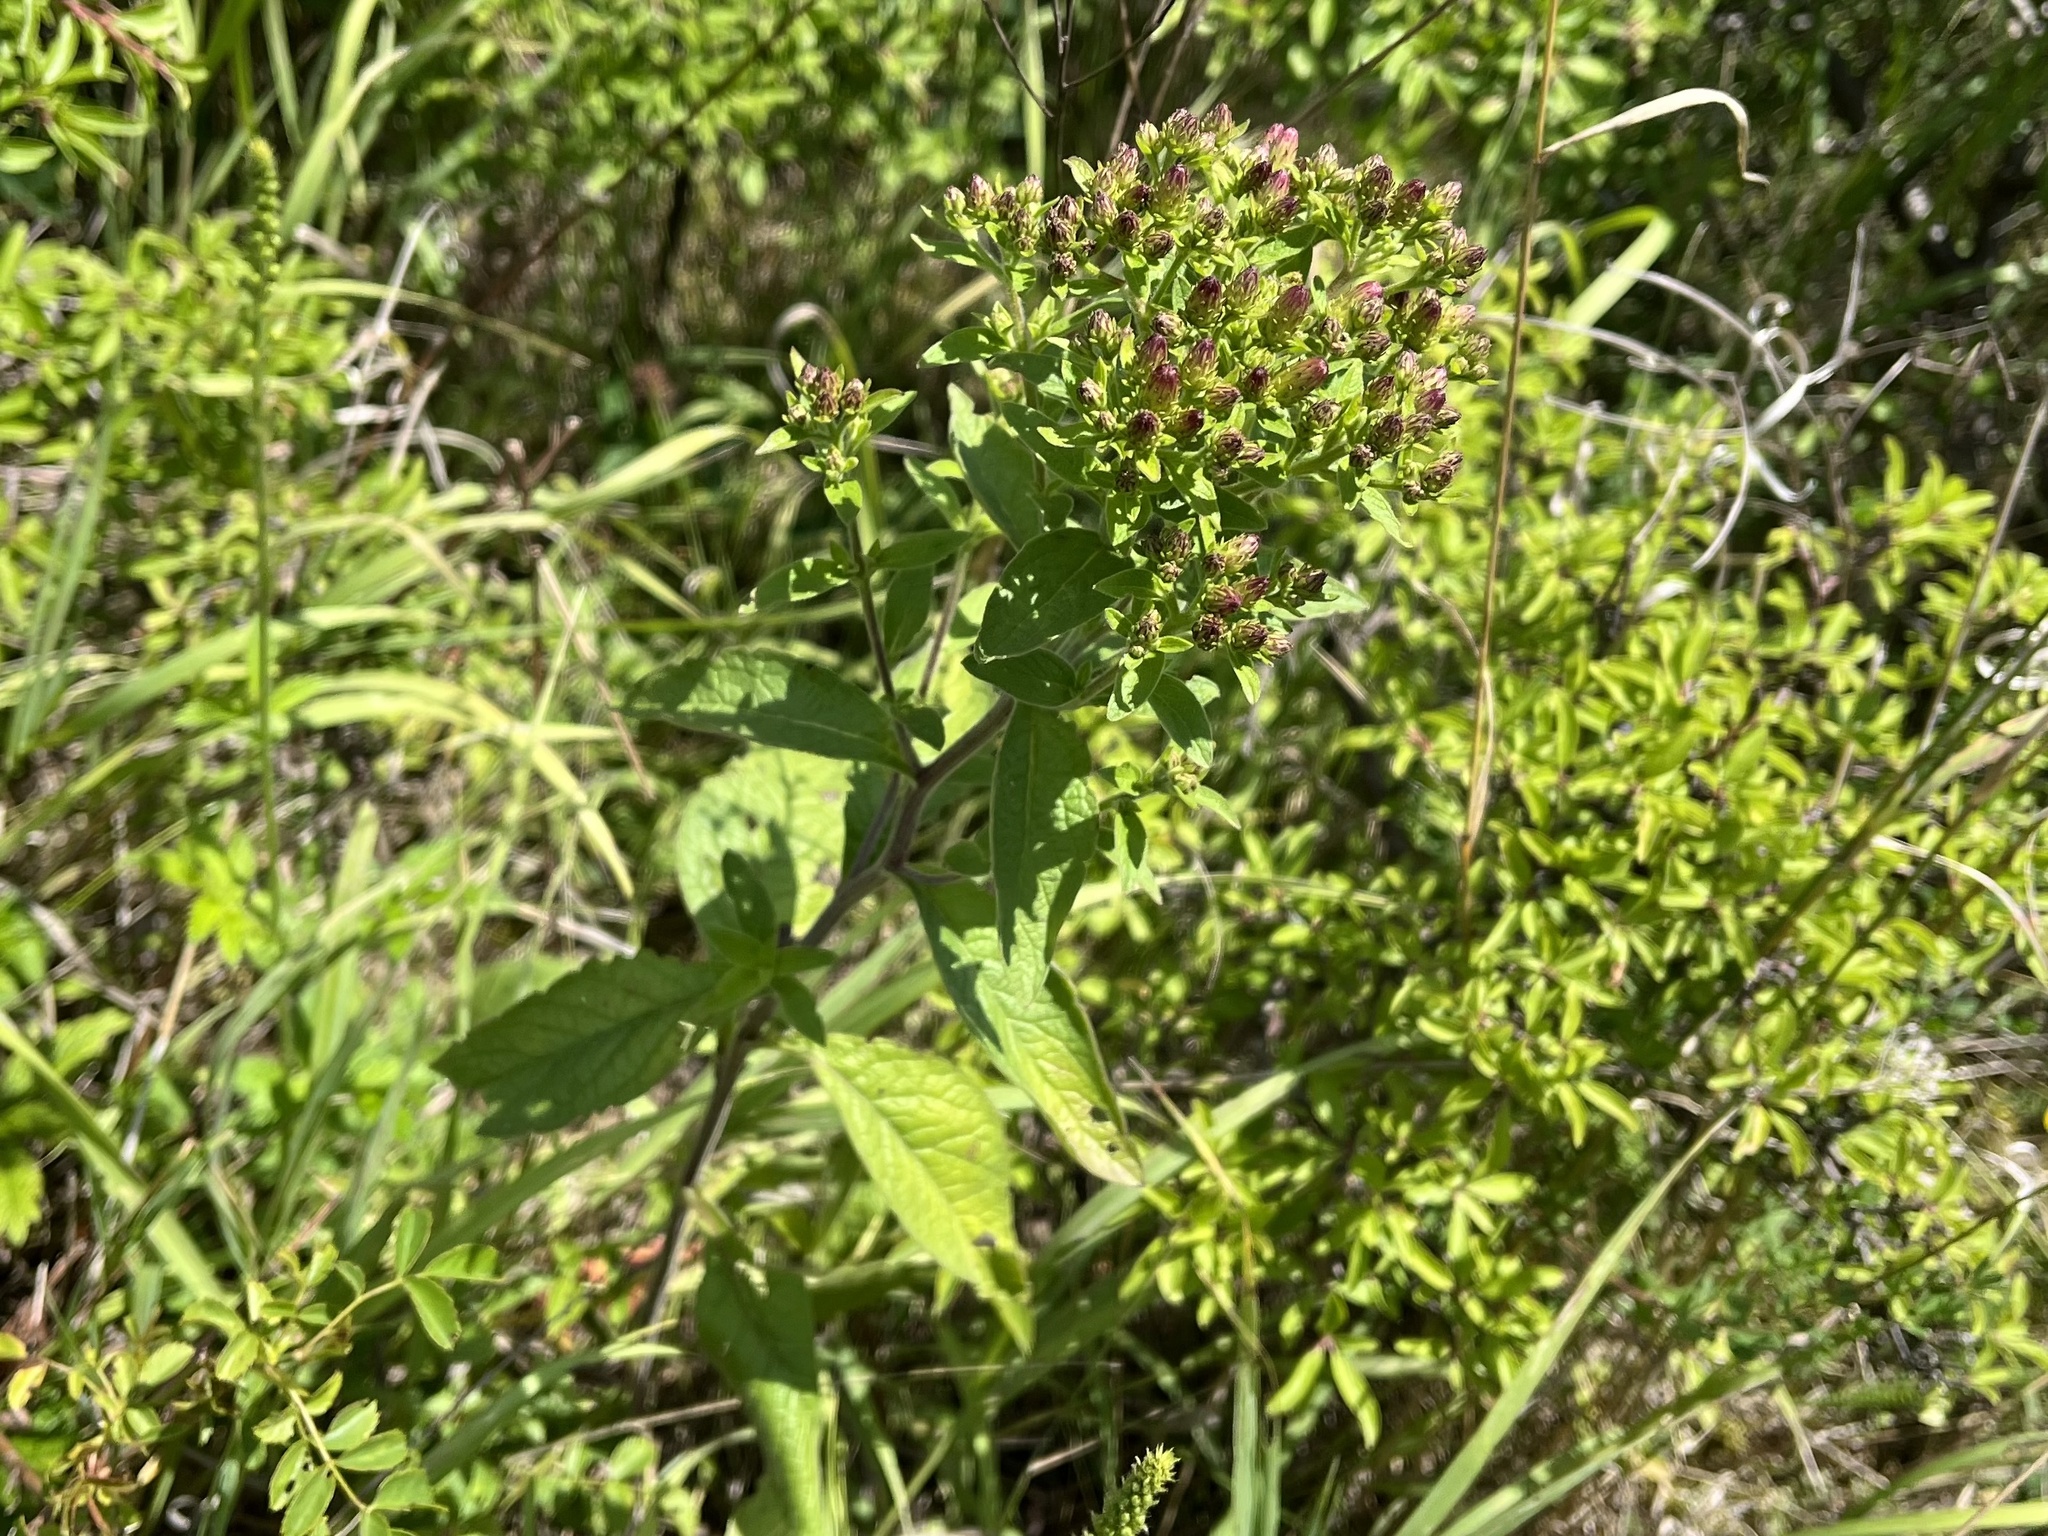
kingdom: Plantae
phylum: Tracheophyta
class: Magnoliopsida
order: Asterales
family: Asteraceae
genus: Pentanema
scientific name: Pentanema squarrosum
